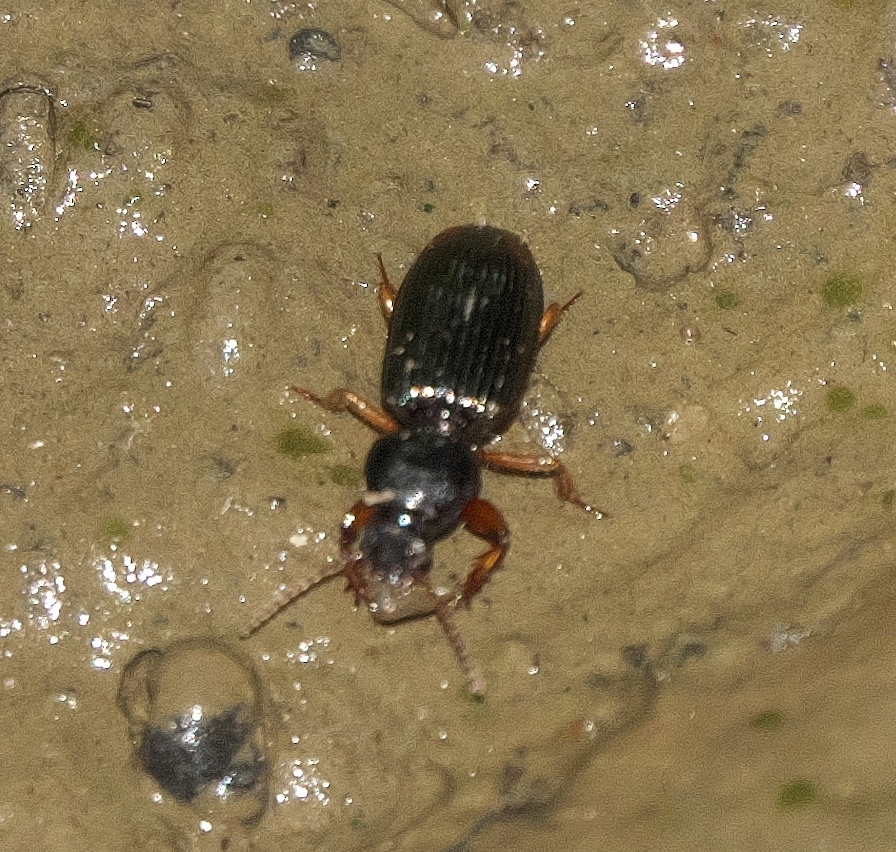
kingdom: Animalia
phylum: Arthropoda
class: Insecta
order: Coleoptera
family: Carabidae
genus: Aspidoglossa
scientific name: Aspidoglossa subangulata
